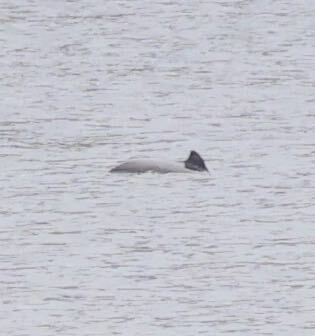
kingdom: Animalia
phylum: Chordata
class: Mammalia
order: Cetacea
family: Phocoenidae
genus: Phocoena
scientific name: Phocoena phocoena
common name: Harbor porpoise
